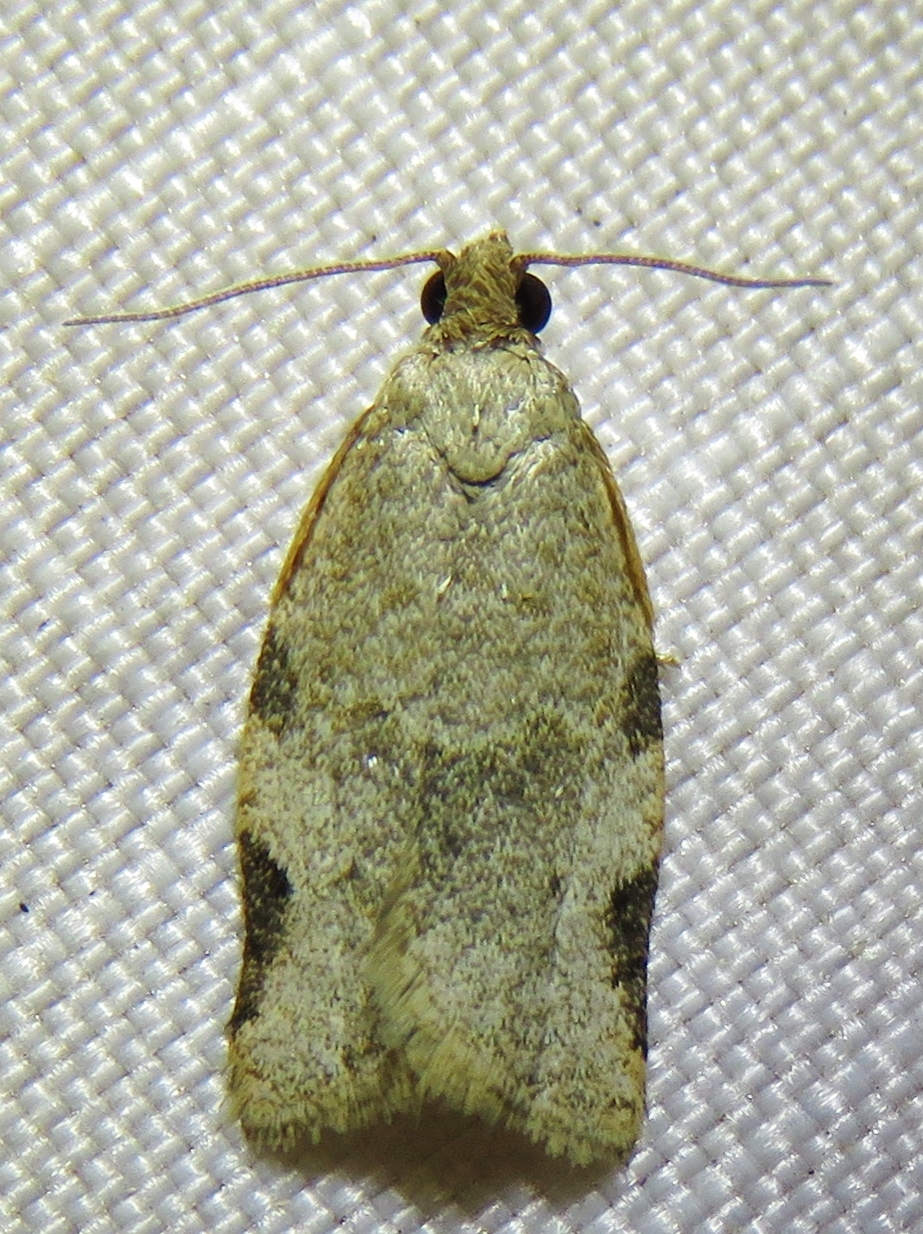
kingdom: Animalia
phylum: Arthropoda
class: Insecta
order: Lepidoptera
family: Tortricidae
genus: Clepsis
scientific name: Clepsis virescana
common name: Greenish apple moth
